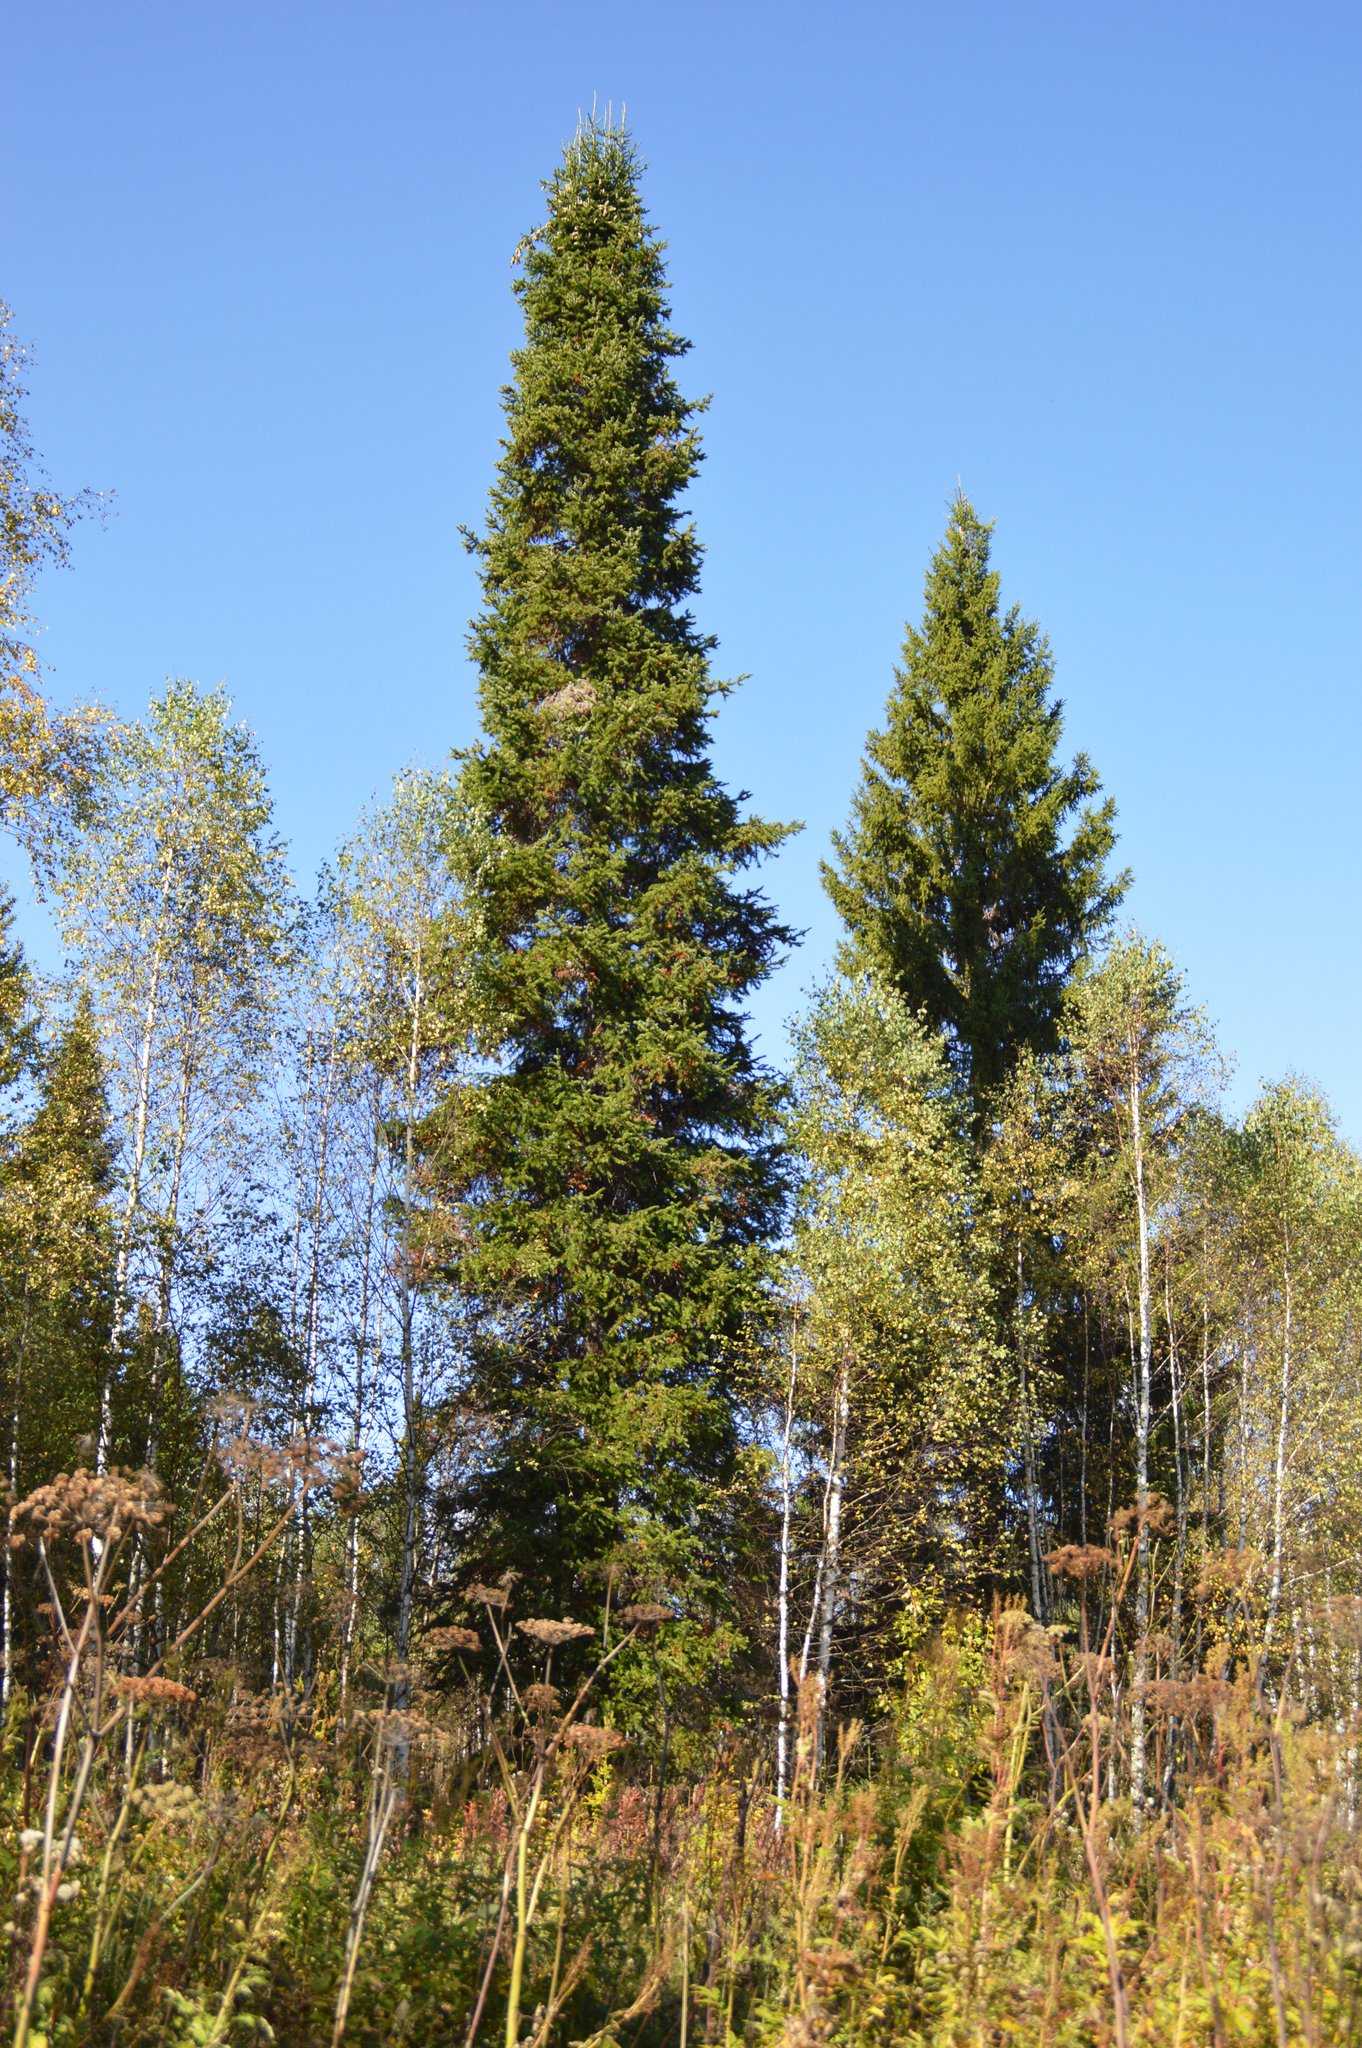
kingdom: Plantae
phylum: Tracheophyta
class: Pinopsida
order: Pinales
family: Pinaceae
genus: Abies
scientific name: Abies sibirica
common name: Siberian fir
